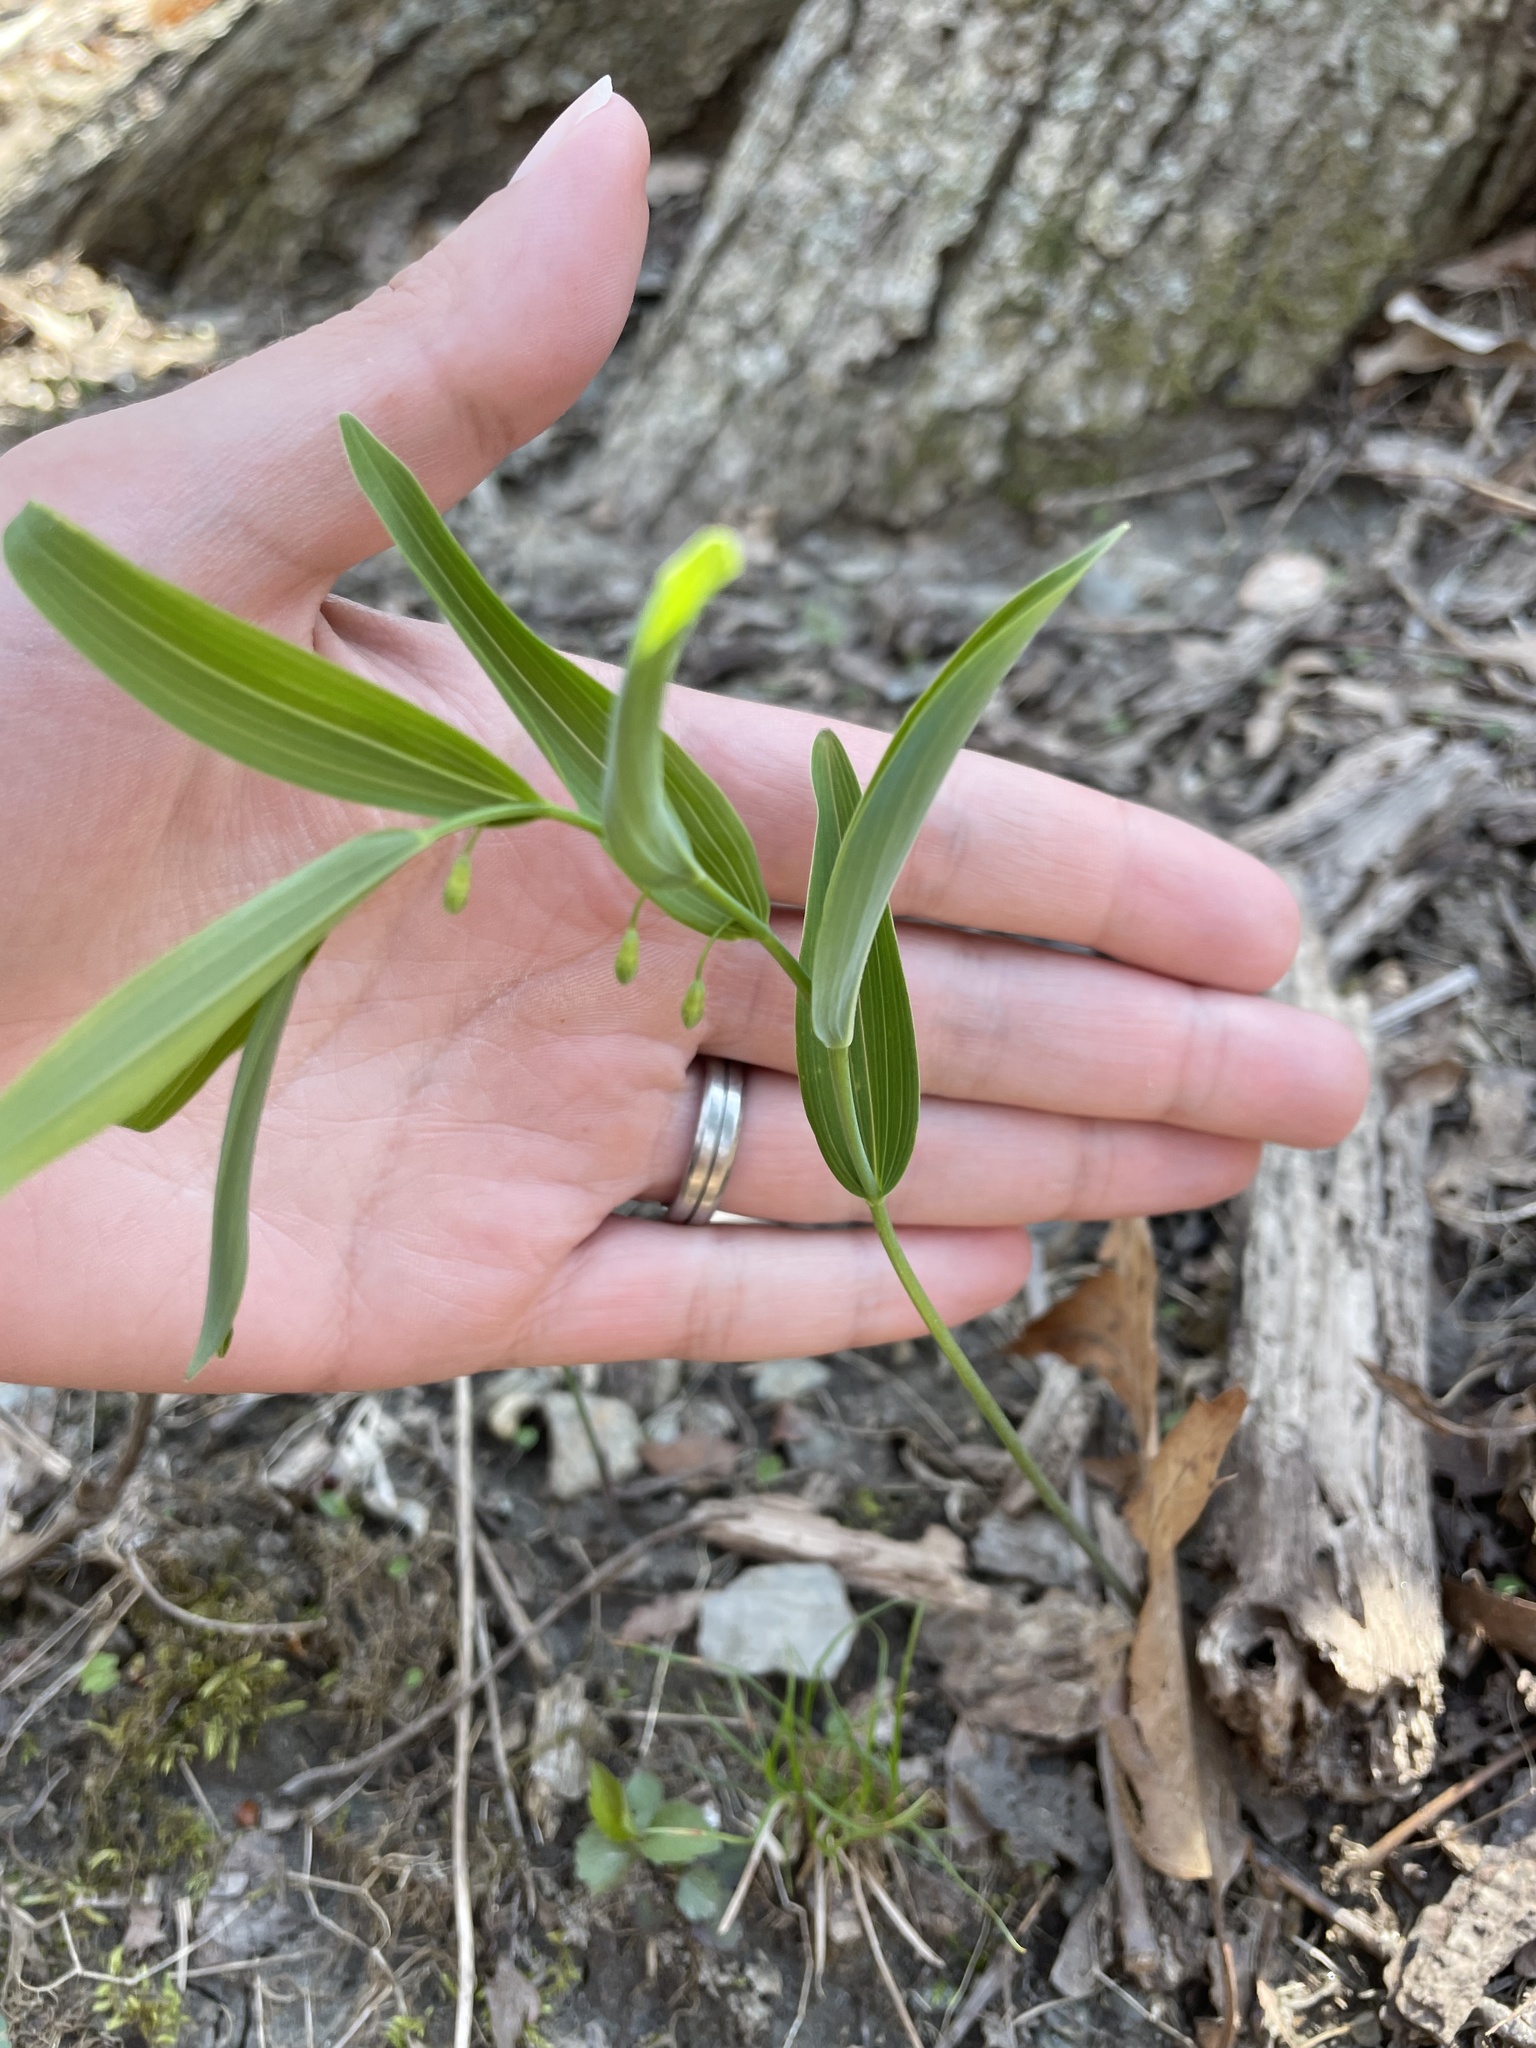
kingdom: Plantae
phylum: Tracheophyta
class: Liliopsida
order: Asparagales
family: Asparagaceae
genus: Polygonatum
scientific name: Polygonatum biflorum
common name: American solomon's-seal
